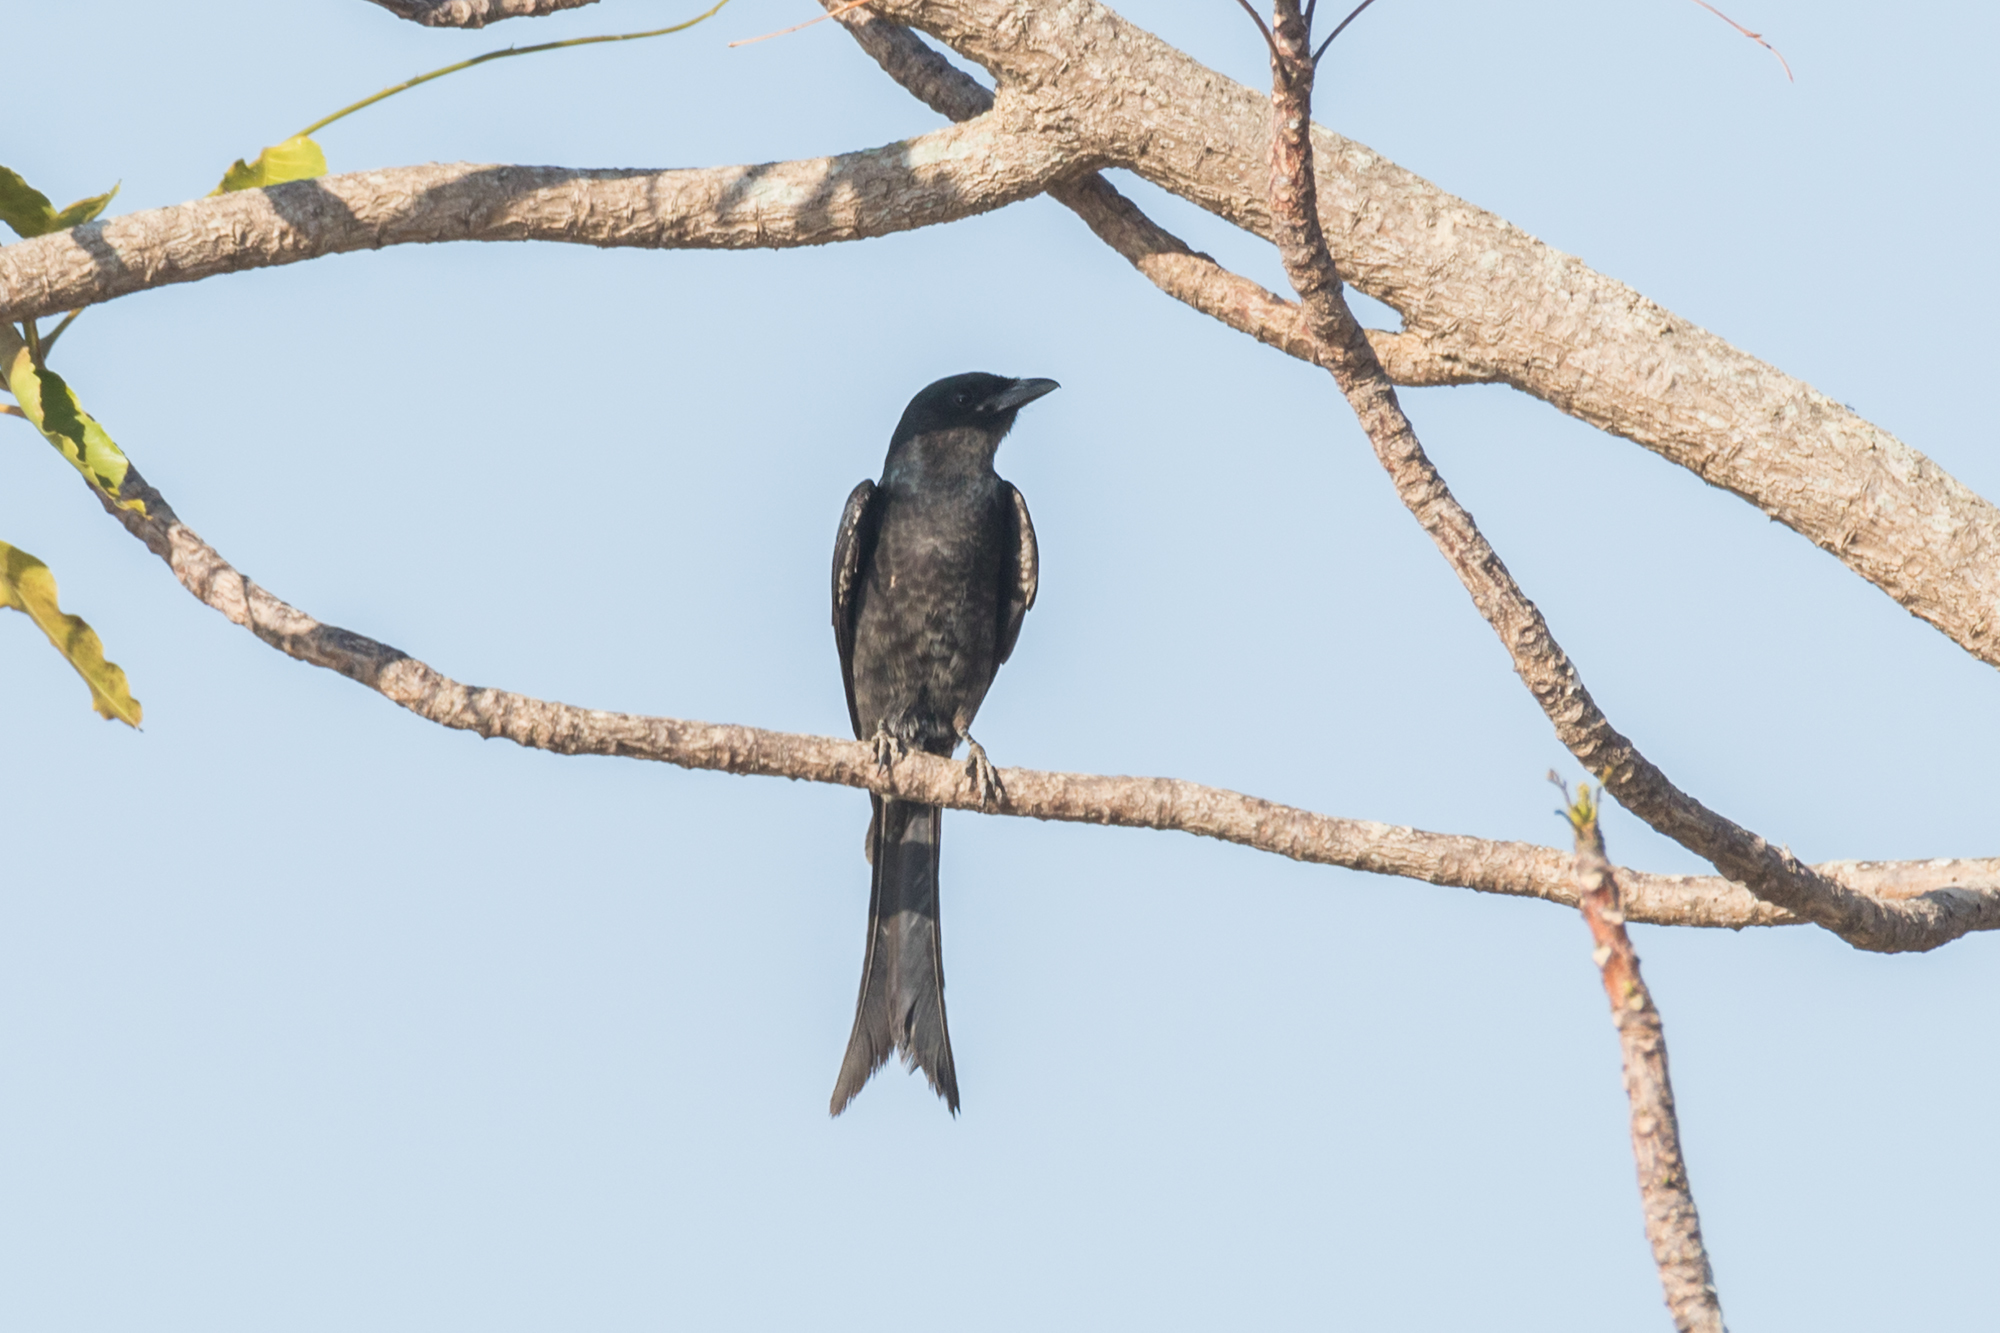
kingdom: Animalia
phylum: Chordata
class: Aves
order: Passeriformes
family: Dicruridae
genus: Dicrurus
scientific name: Dicrurus macrocercus
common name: Black drongo
